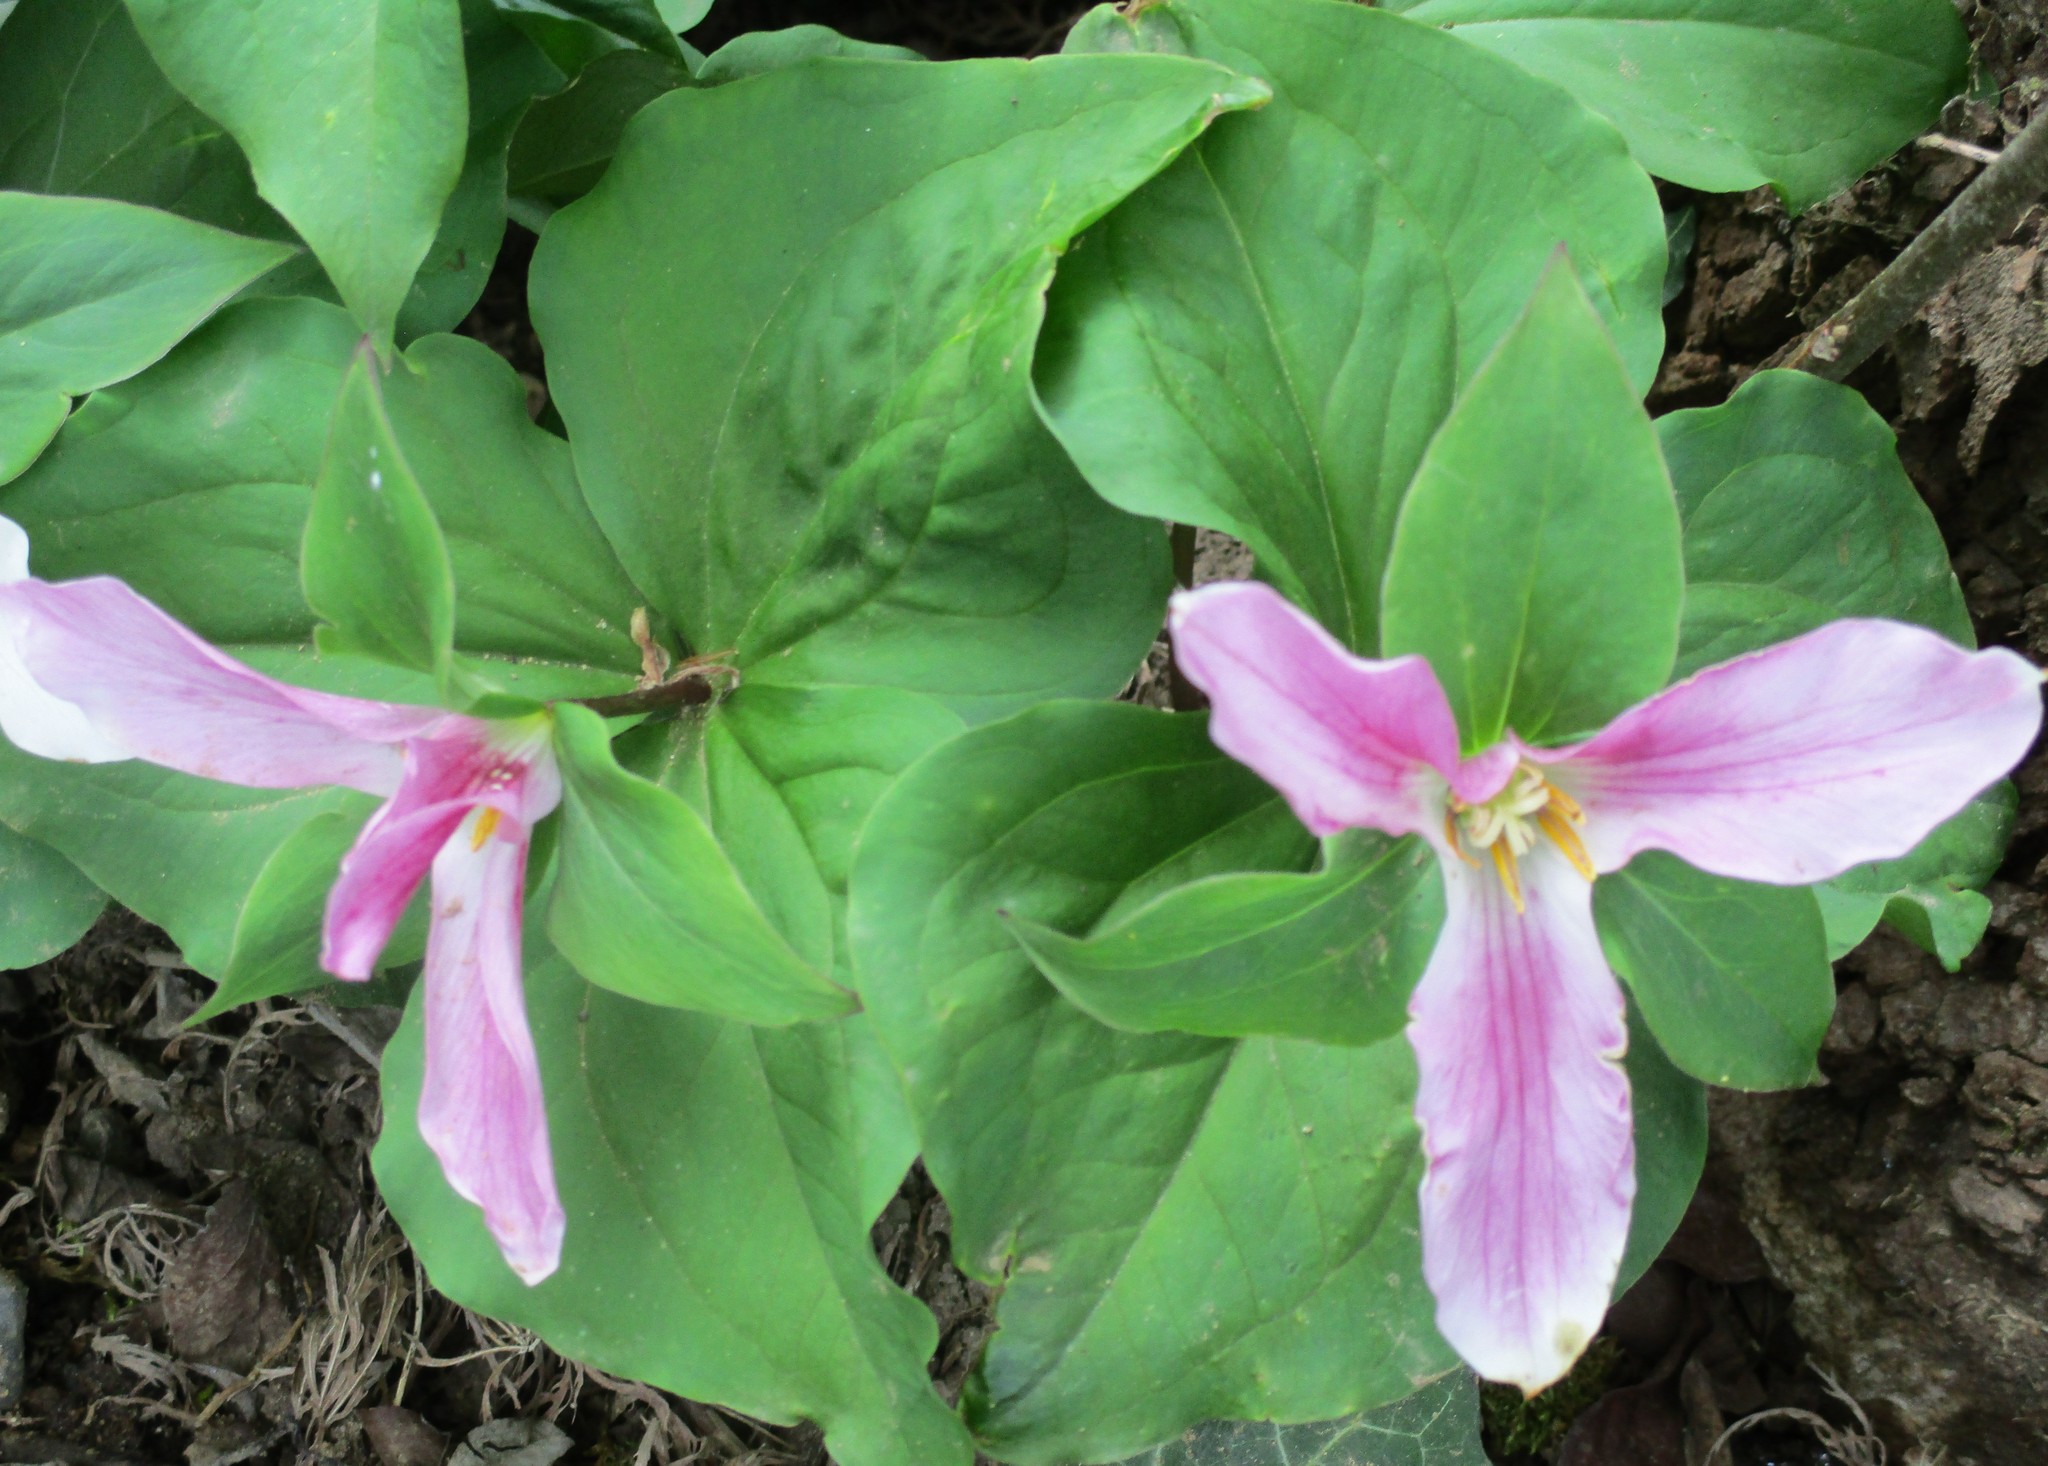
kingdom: Plantae
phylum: Tracheophyta
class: Liliopsida
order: Liliales
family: Melanthiaceae
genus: Trillium
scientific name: Trillium ovatum
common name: Pacific trillium
